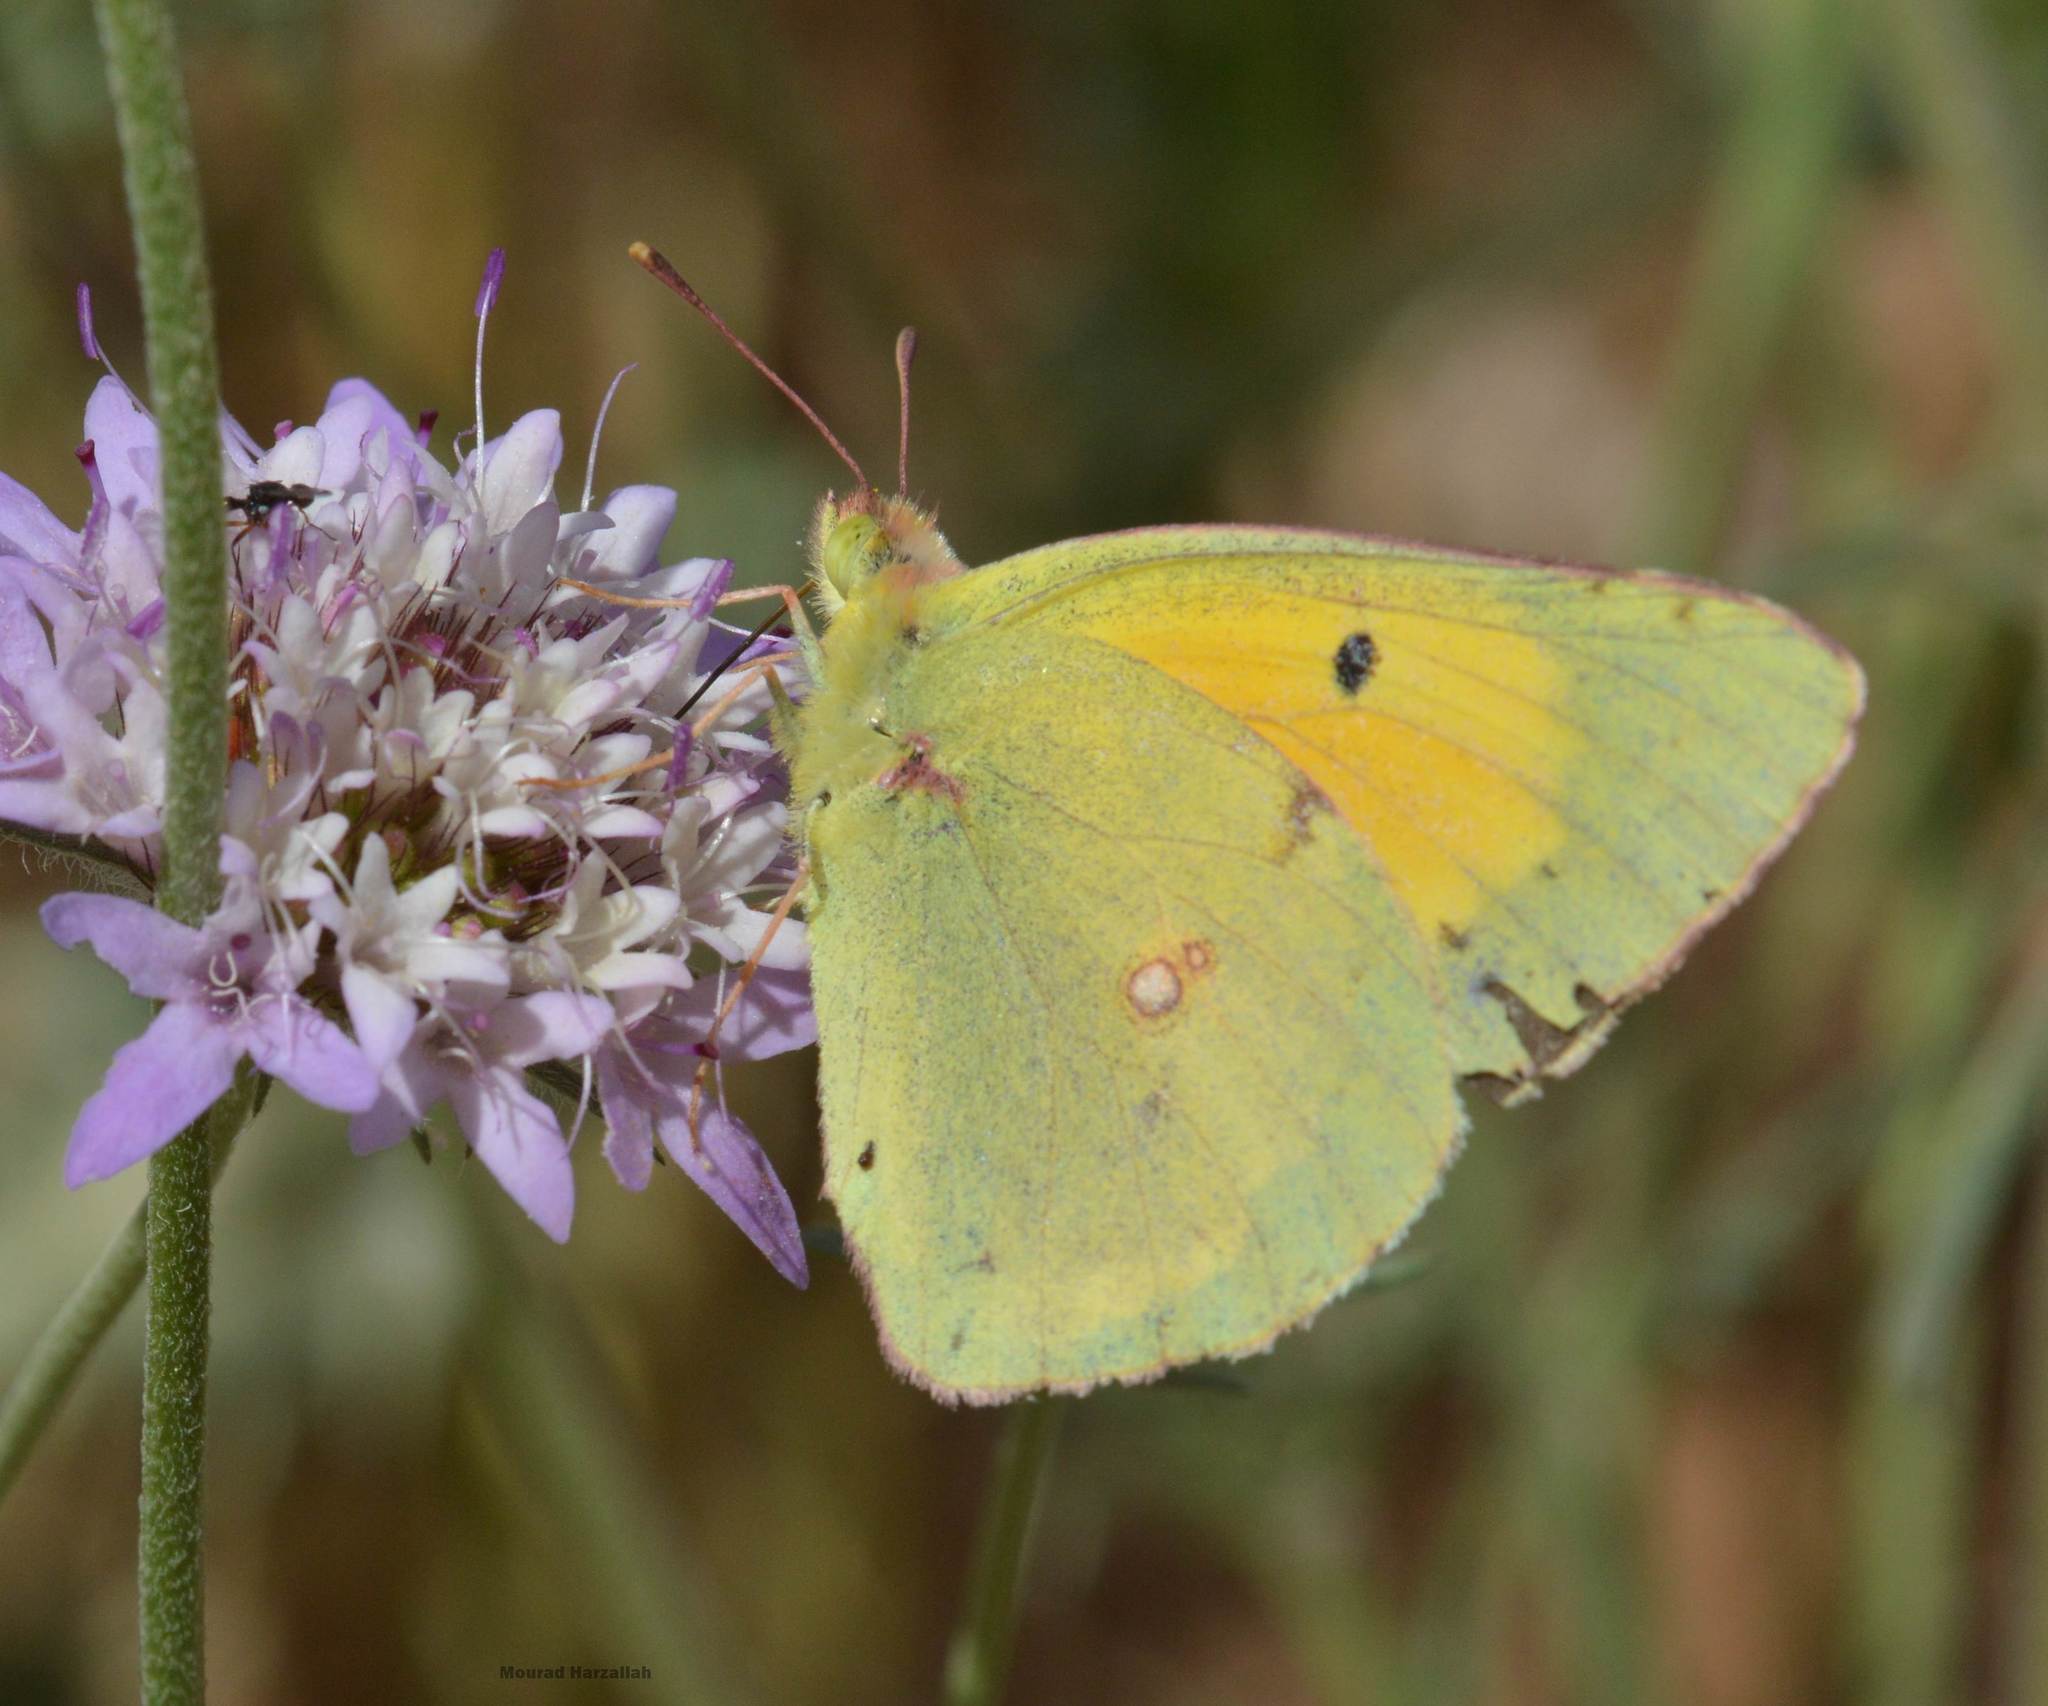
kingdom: Animalia
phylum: Arthropoda
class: Insecta
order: Lepidoptera
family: Pieridae
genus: Colias
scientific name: Colias croceus
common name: Clouded yellow
